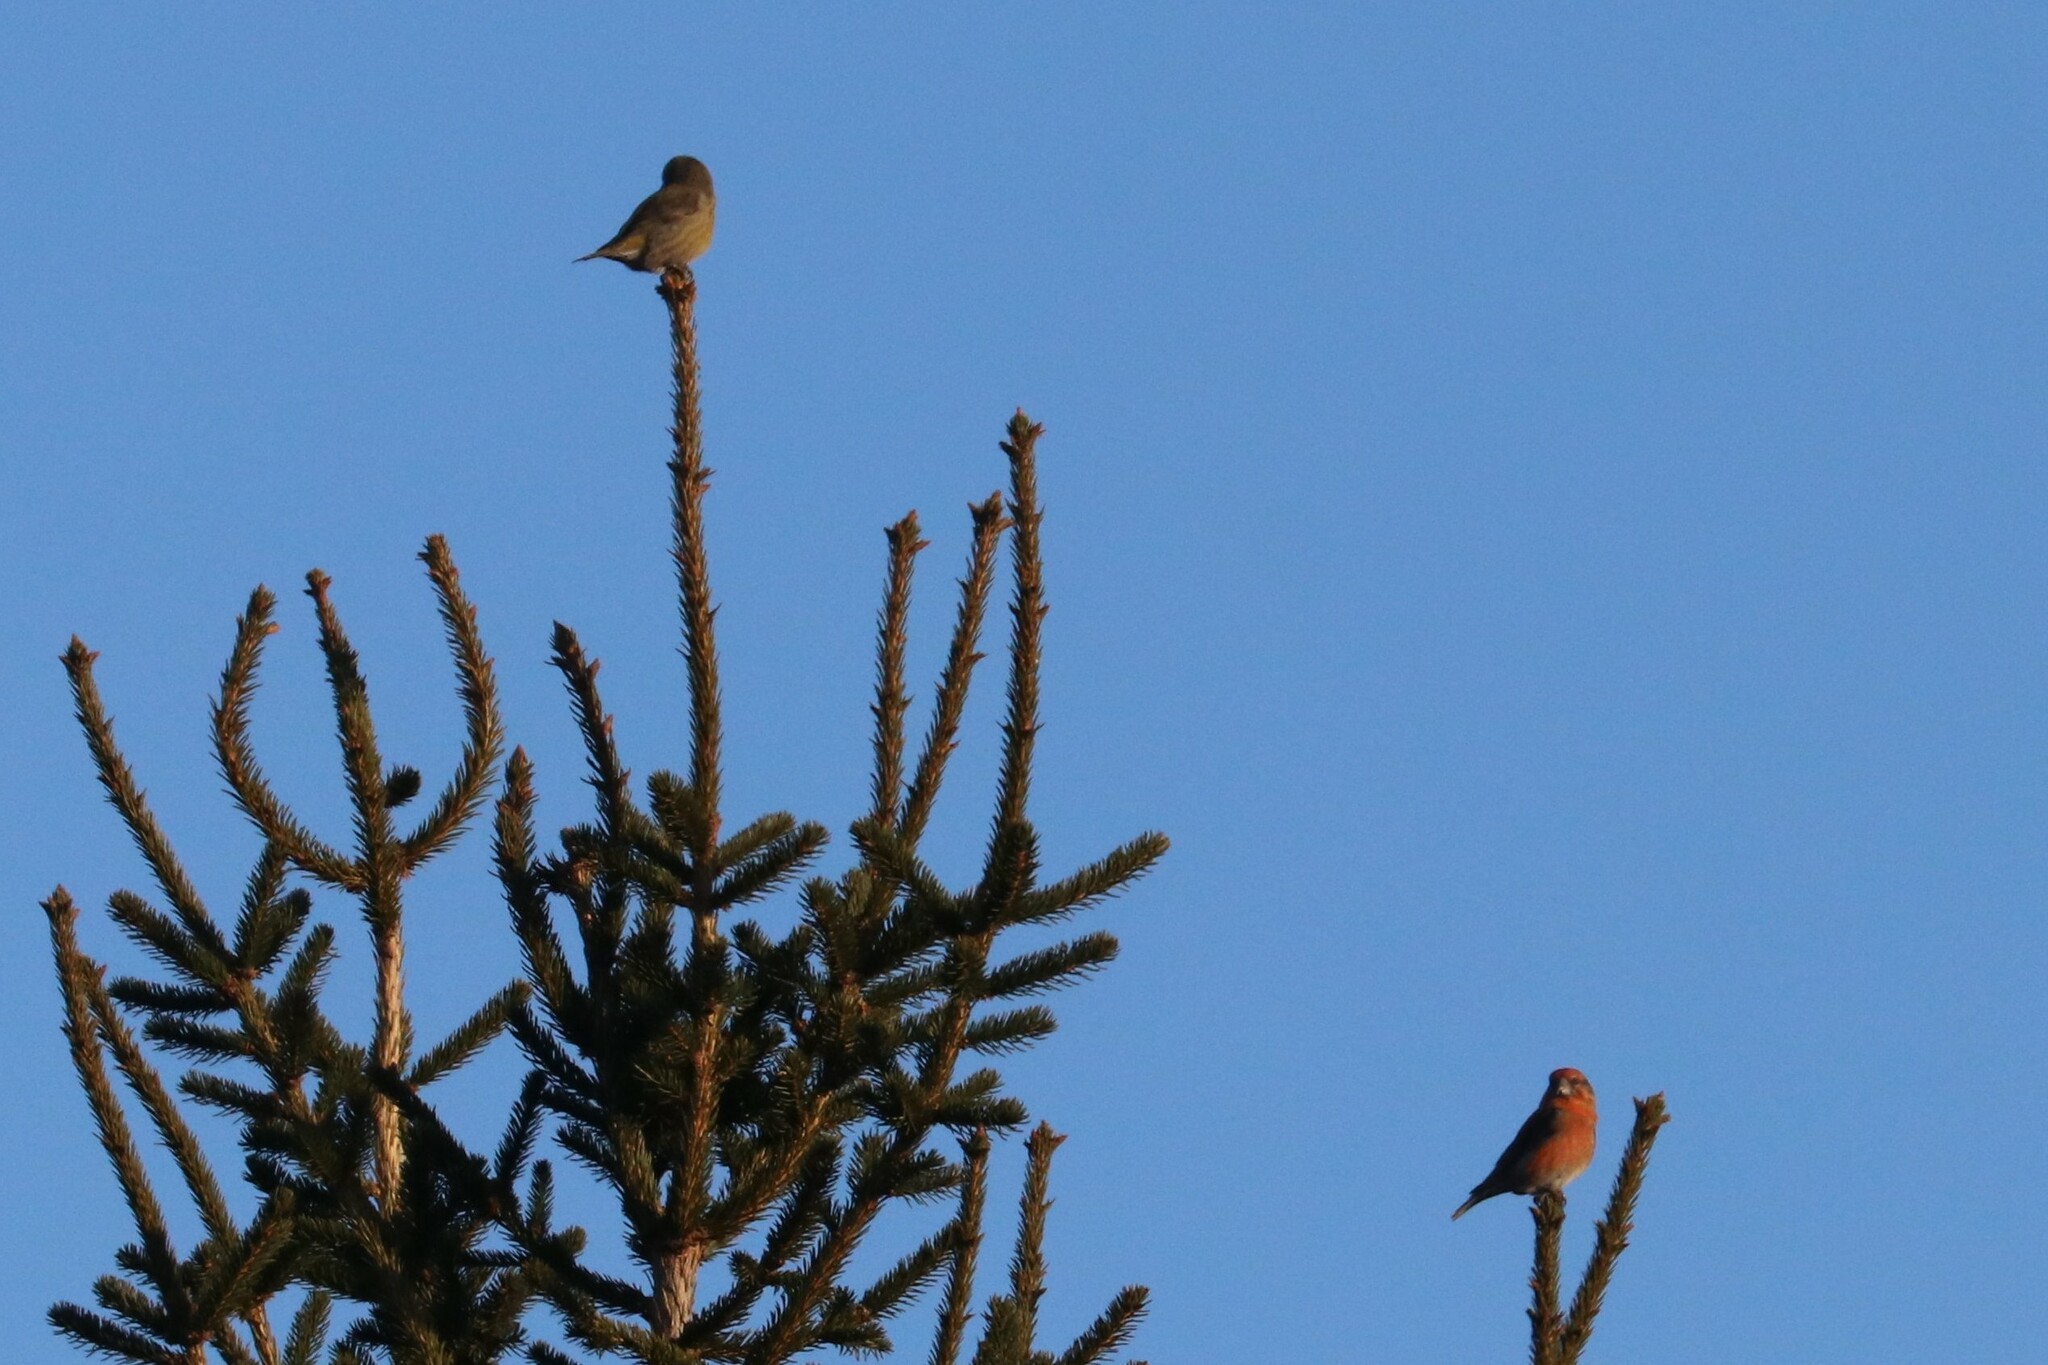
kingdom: Animalia
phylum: Chordata
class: Aves
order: Passeriformes
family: Fringillidae
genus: Loxia
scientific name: Loxia curvirostra
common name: Red crossbill
